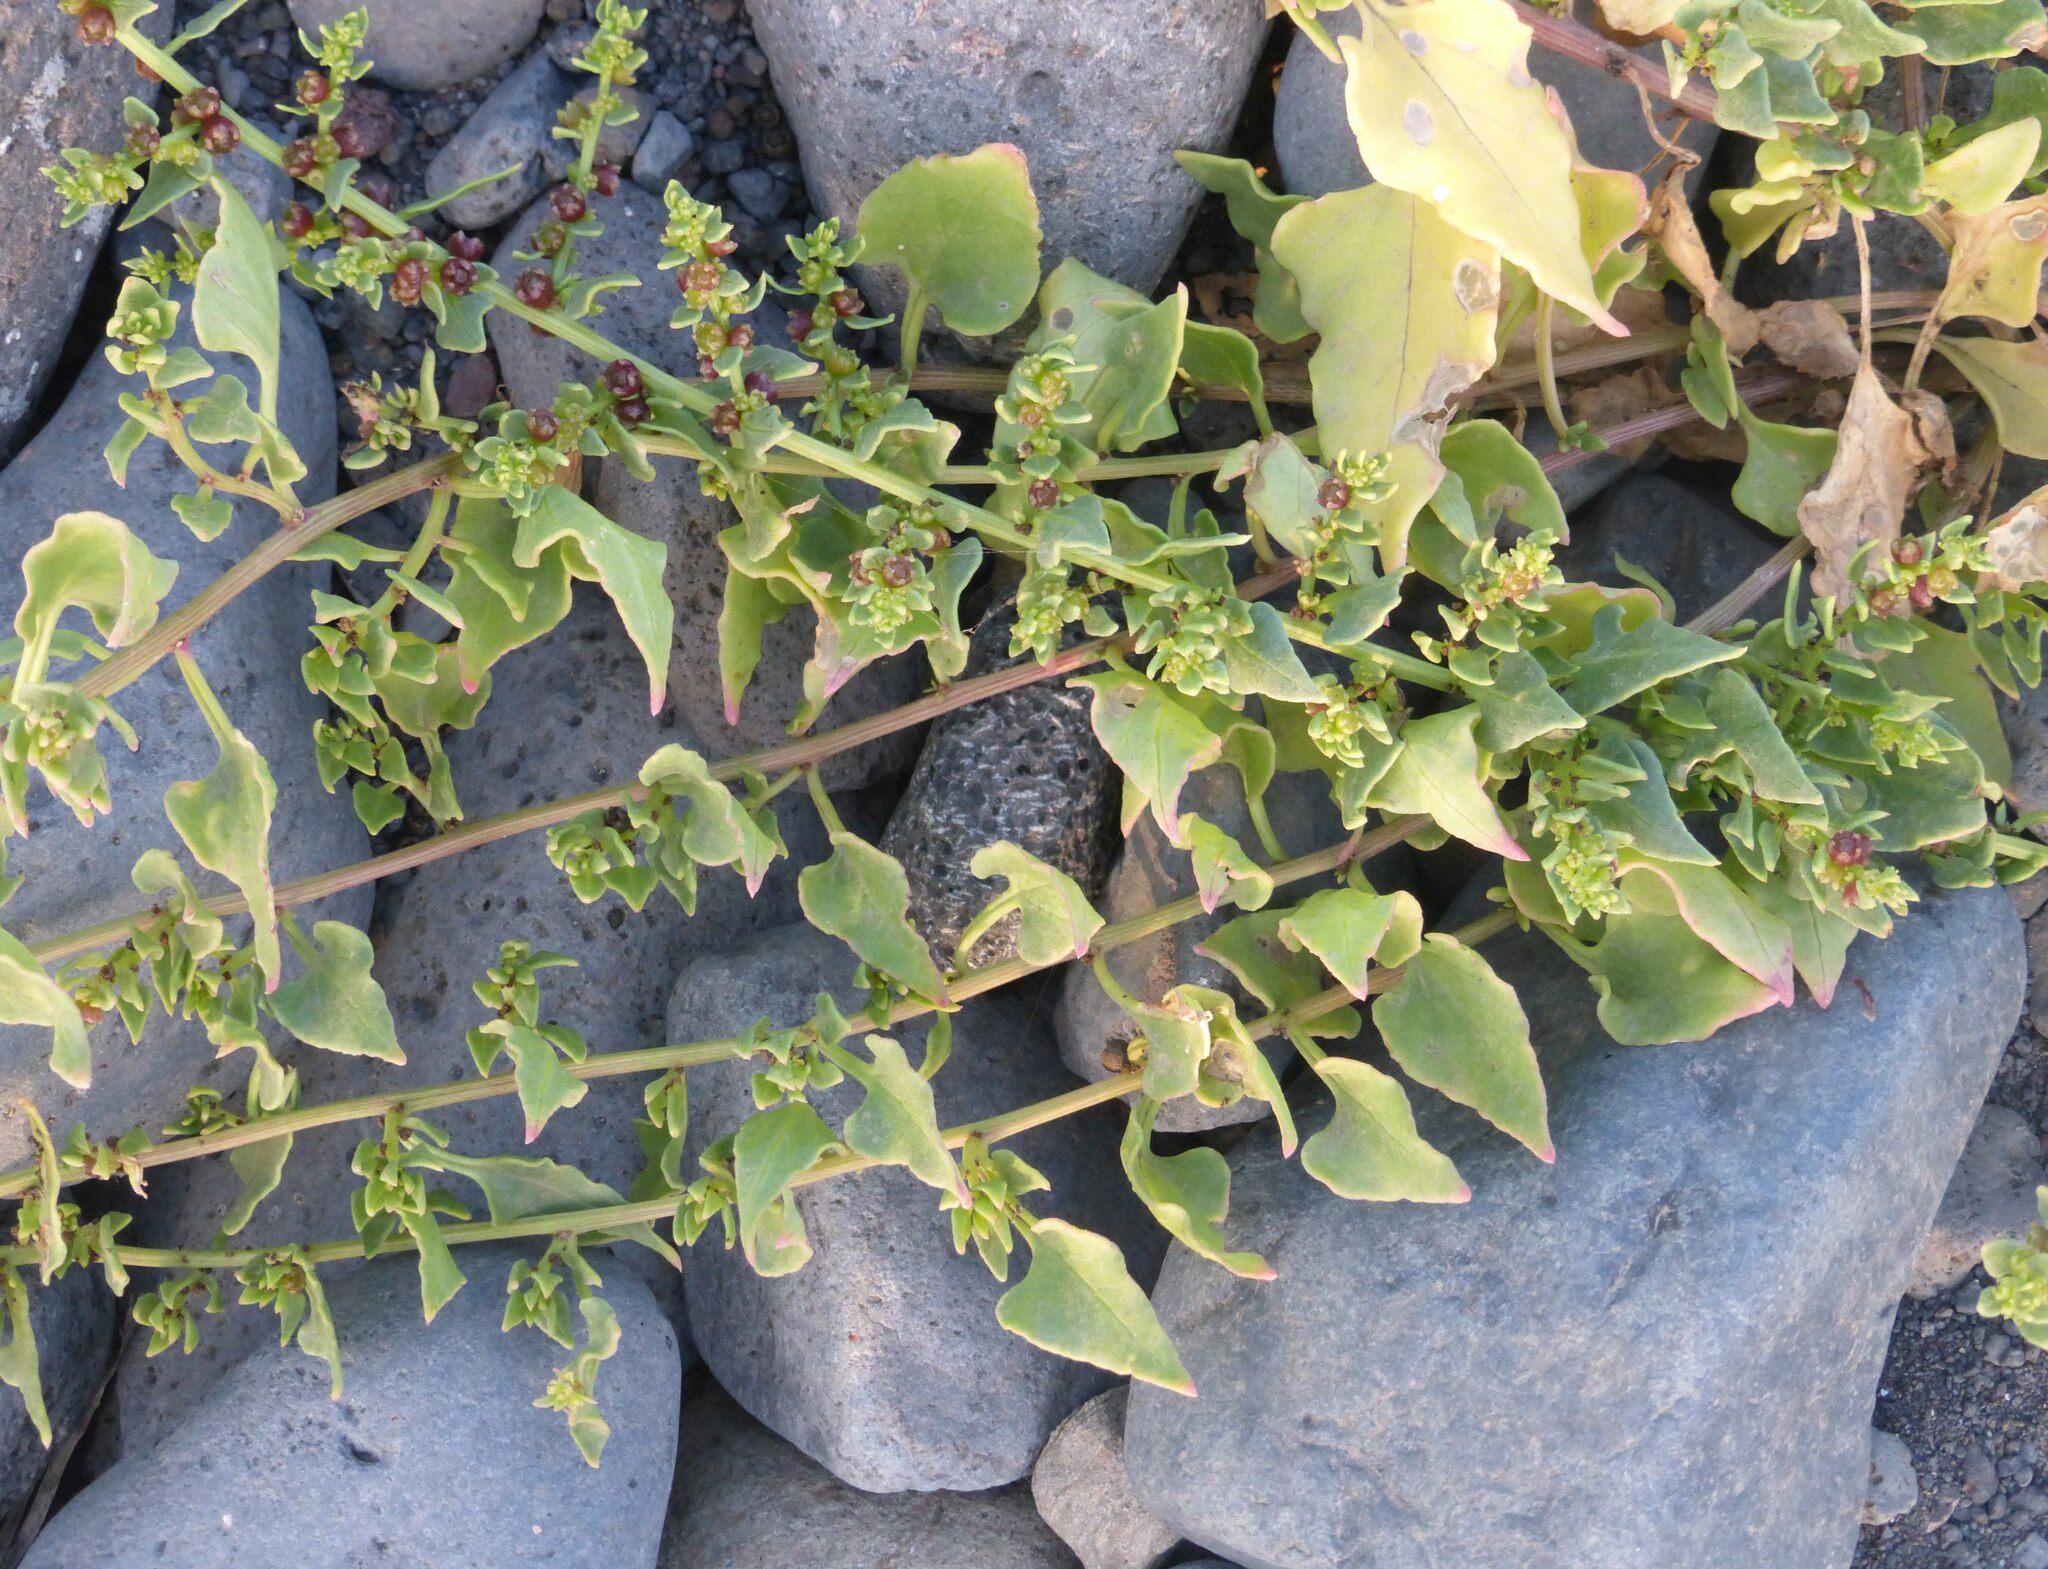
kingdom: Plantae
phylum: Tracheophyta
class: Magnoliopsida
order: Caryophyllales
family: Amaranthaceae
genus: Patellifolia
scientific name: Patellifolia procumbens
